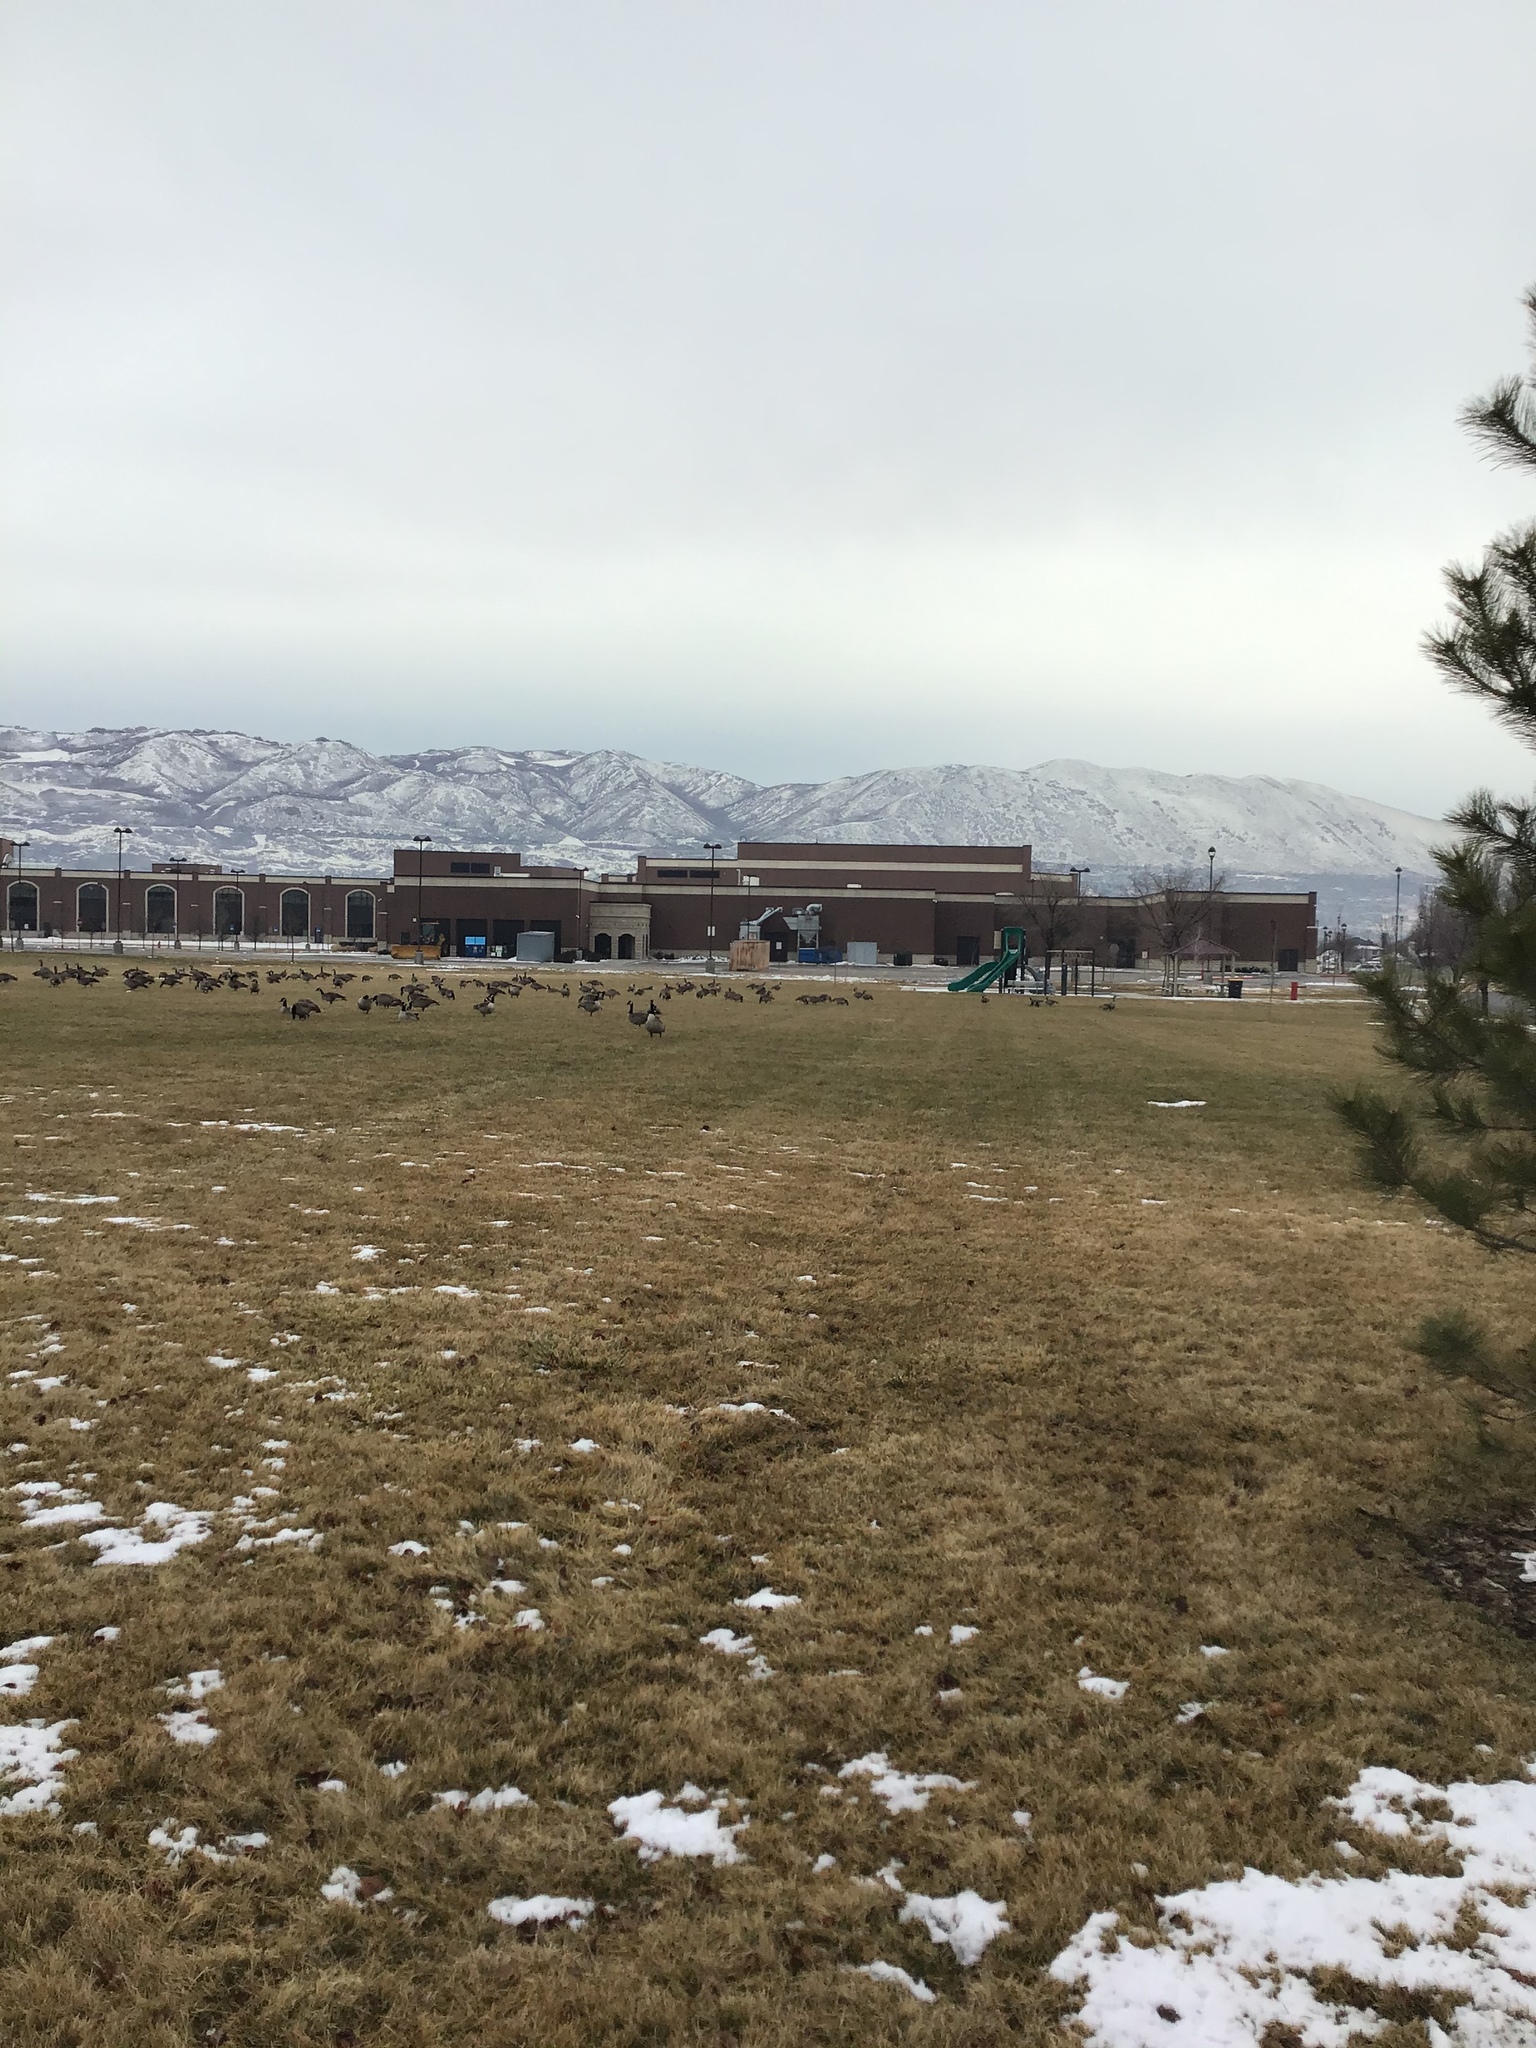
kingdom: Animalia
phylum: Chordata
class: Aves
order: Anseriformes
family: Anatidae
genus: Branta
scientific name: Branta canadensis
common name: Canada goose
